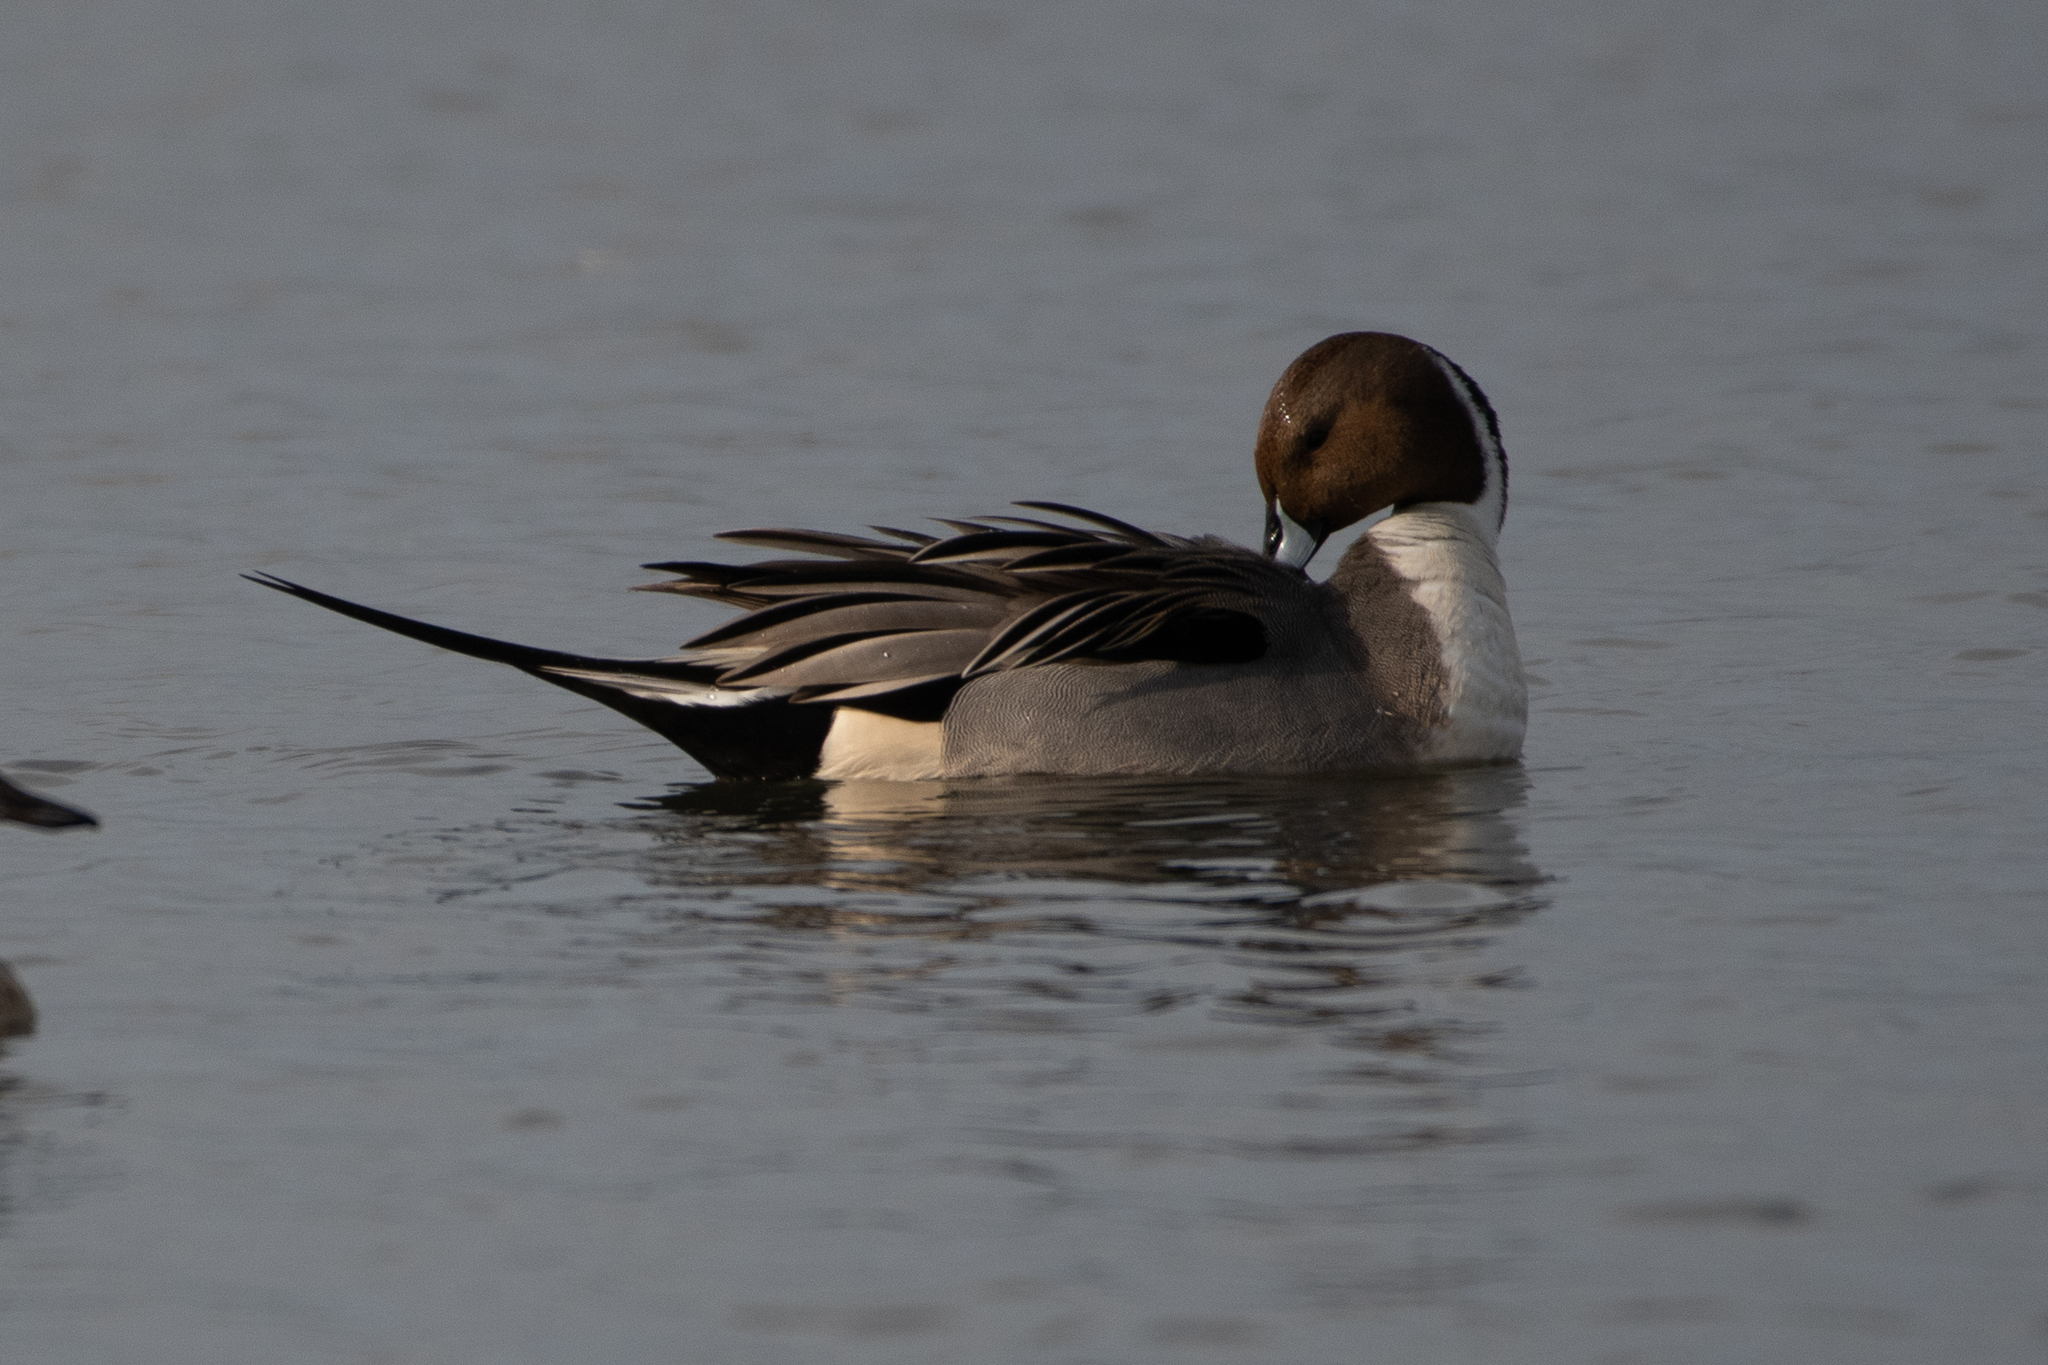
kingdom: Animalia
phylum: Chordata
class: Aves
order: Anseriformes
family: Anatidae
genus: Anas
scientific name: Anas acuta
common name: Northern pintail
